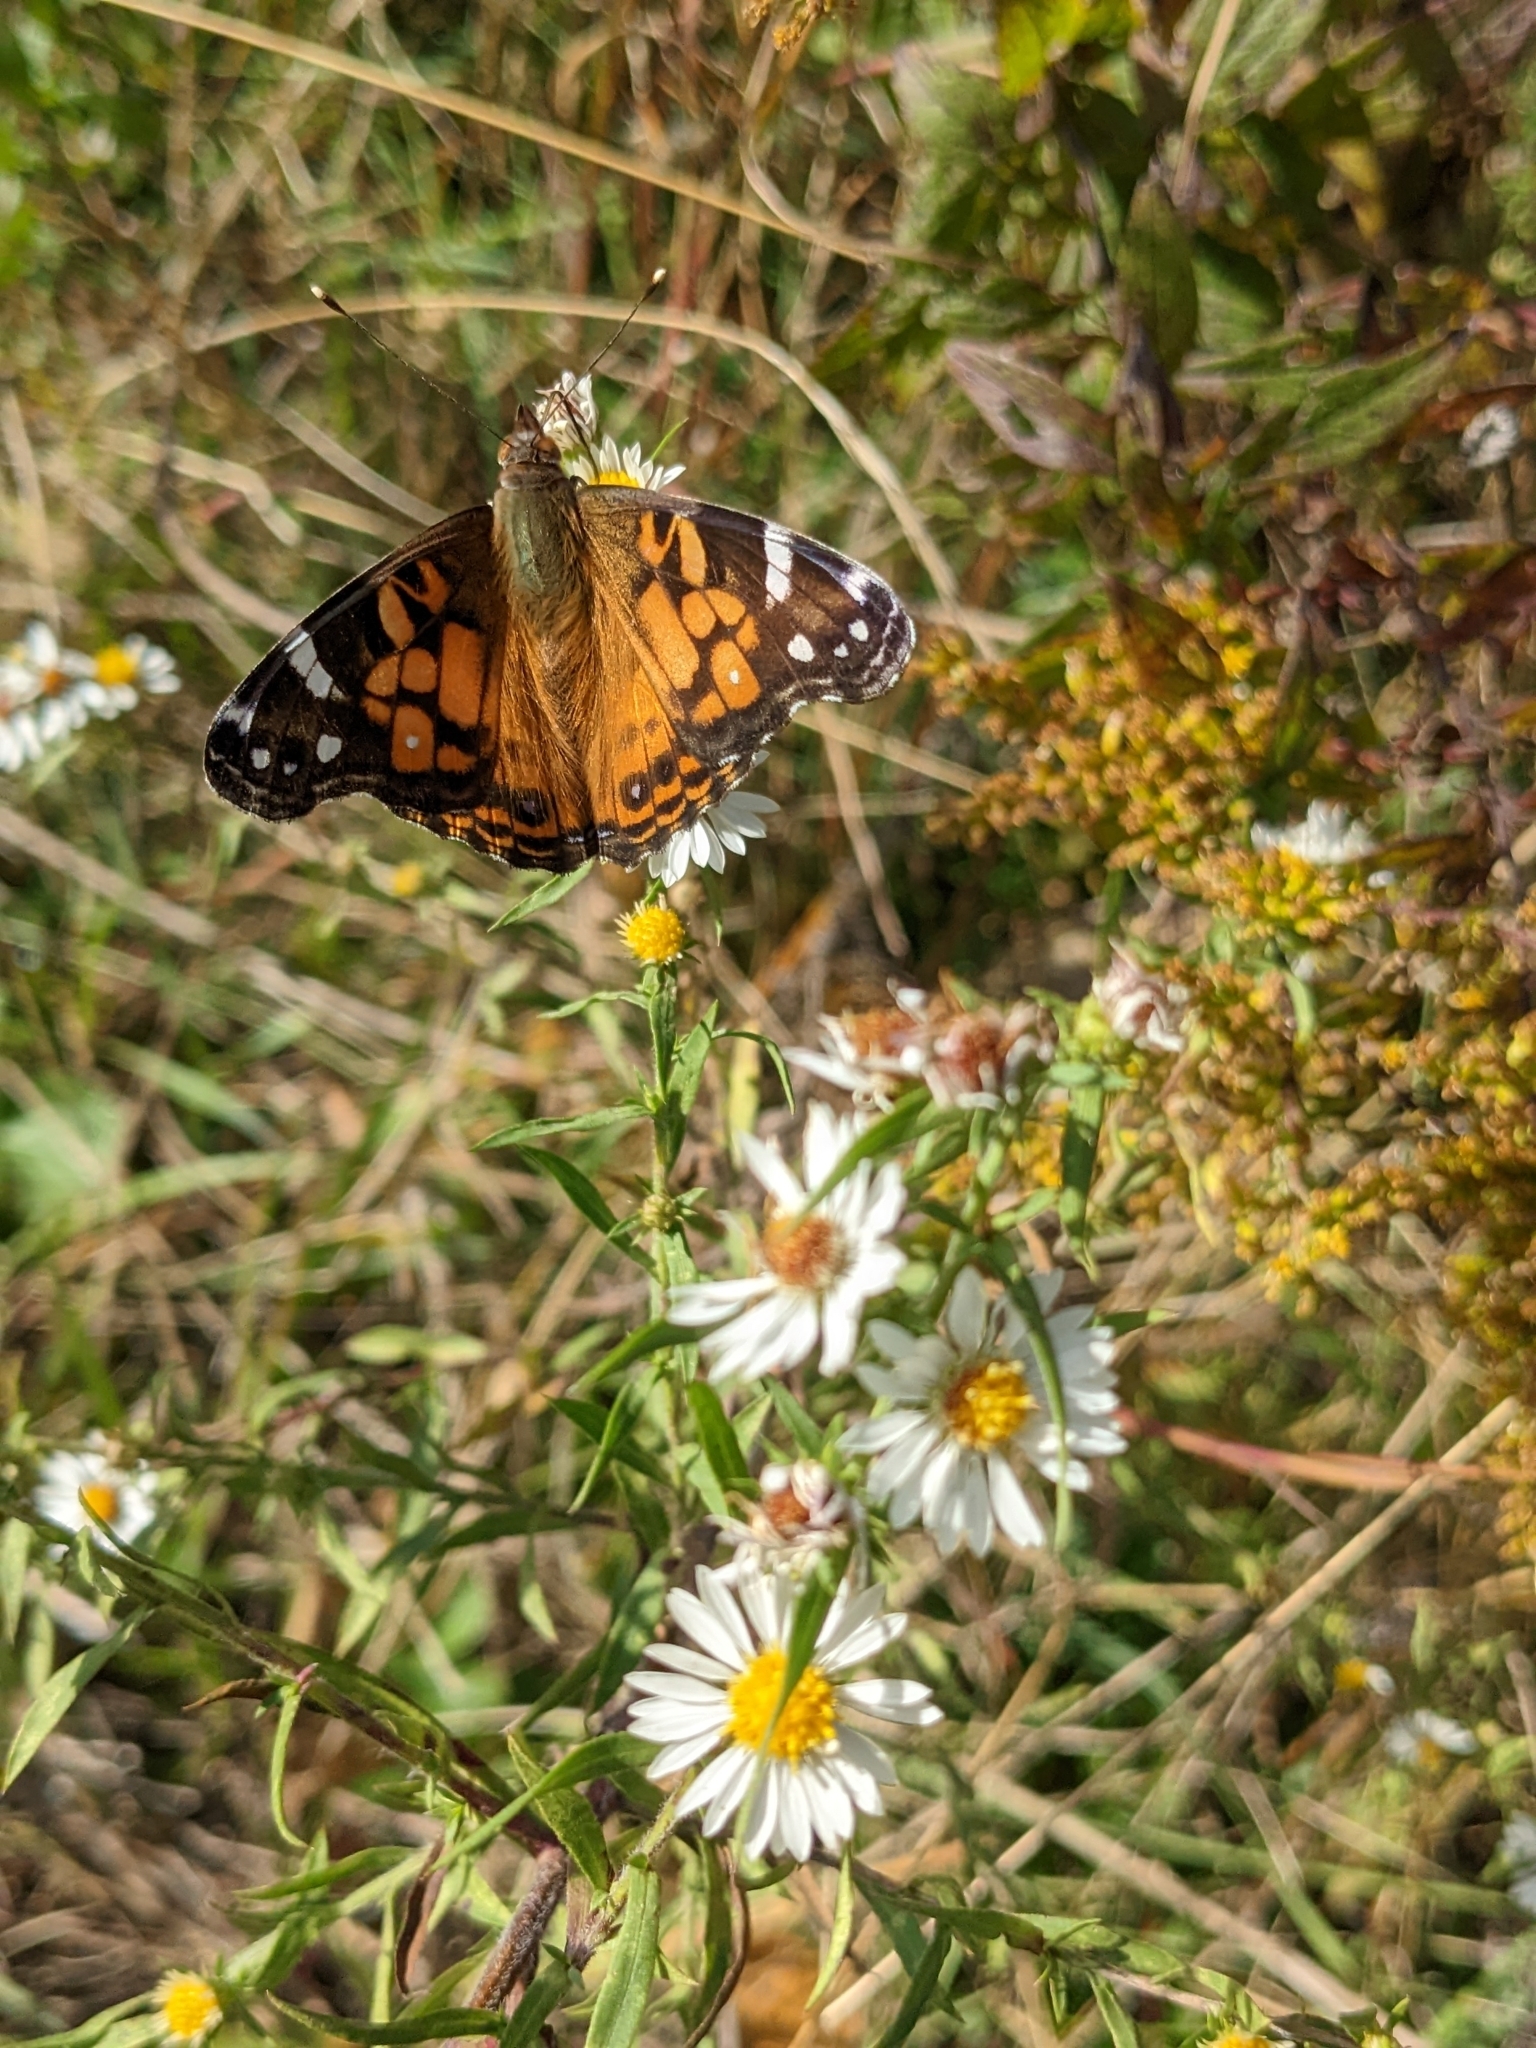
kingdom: Animalia
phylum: Arthropoda
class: Insecta
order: Lepidoptera
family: Nymphalidae
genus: Vanessa
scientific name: Vanessa virginiensis
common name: American lady
